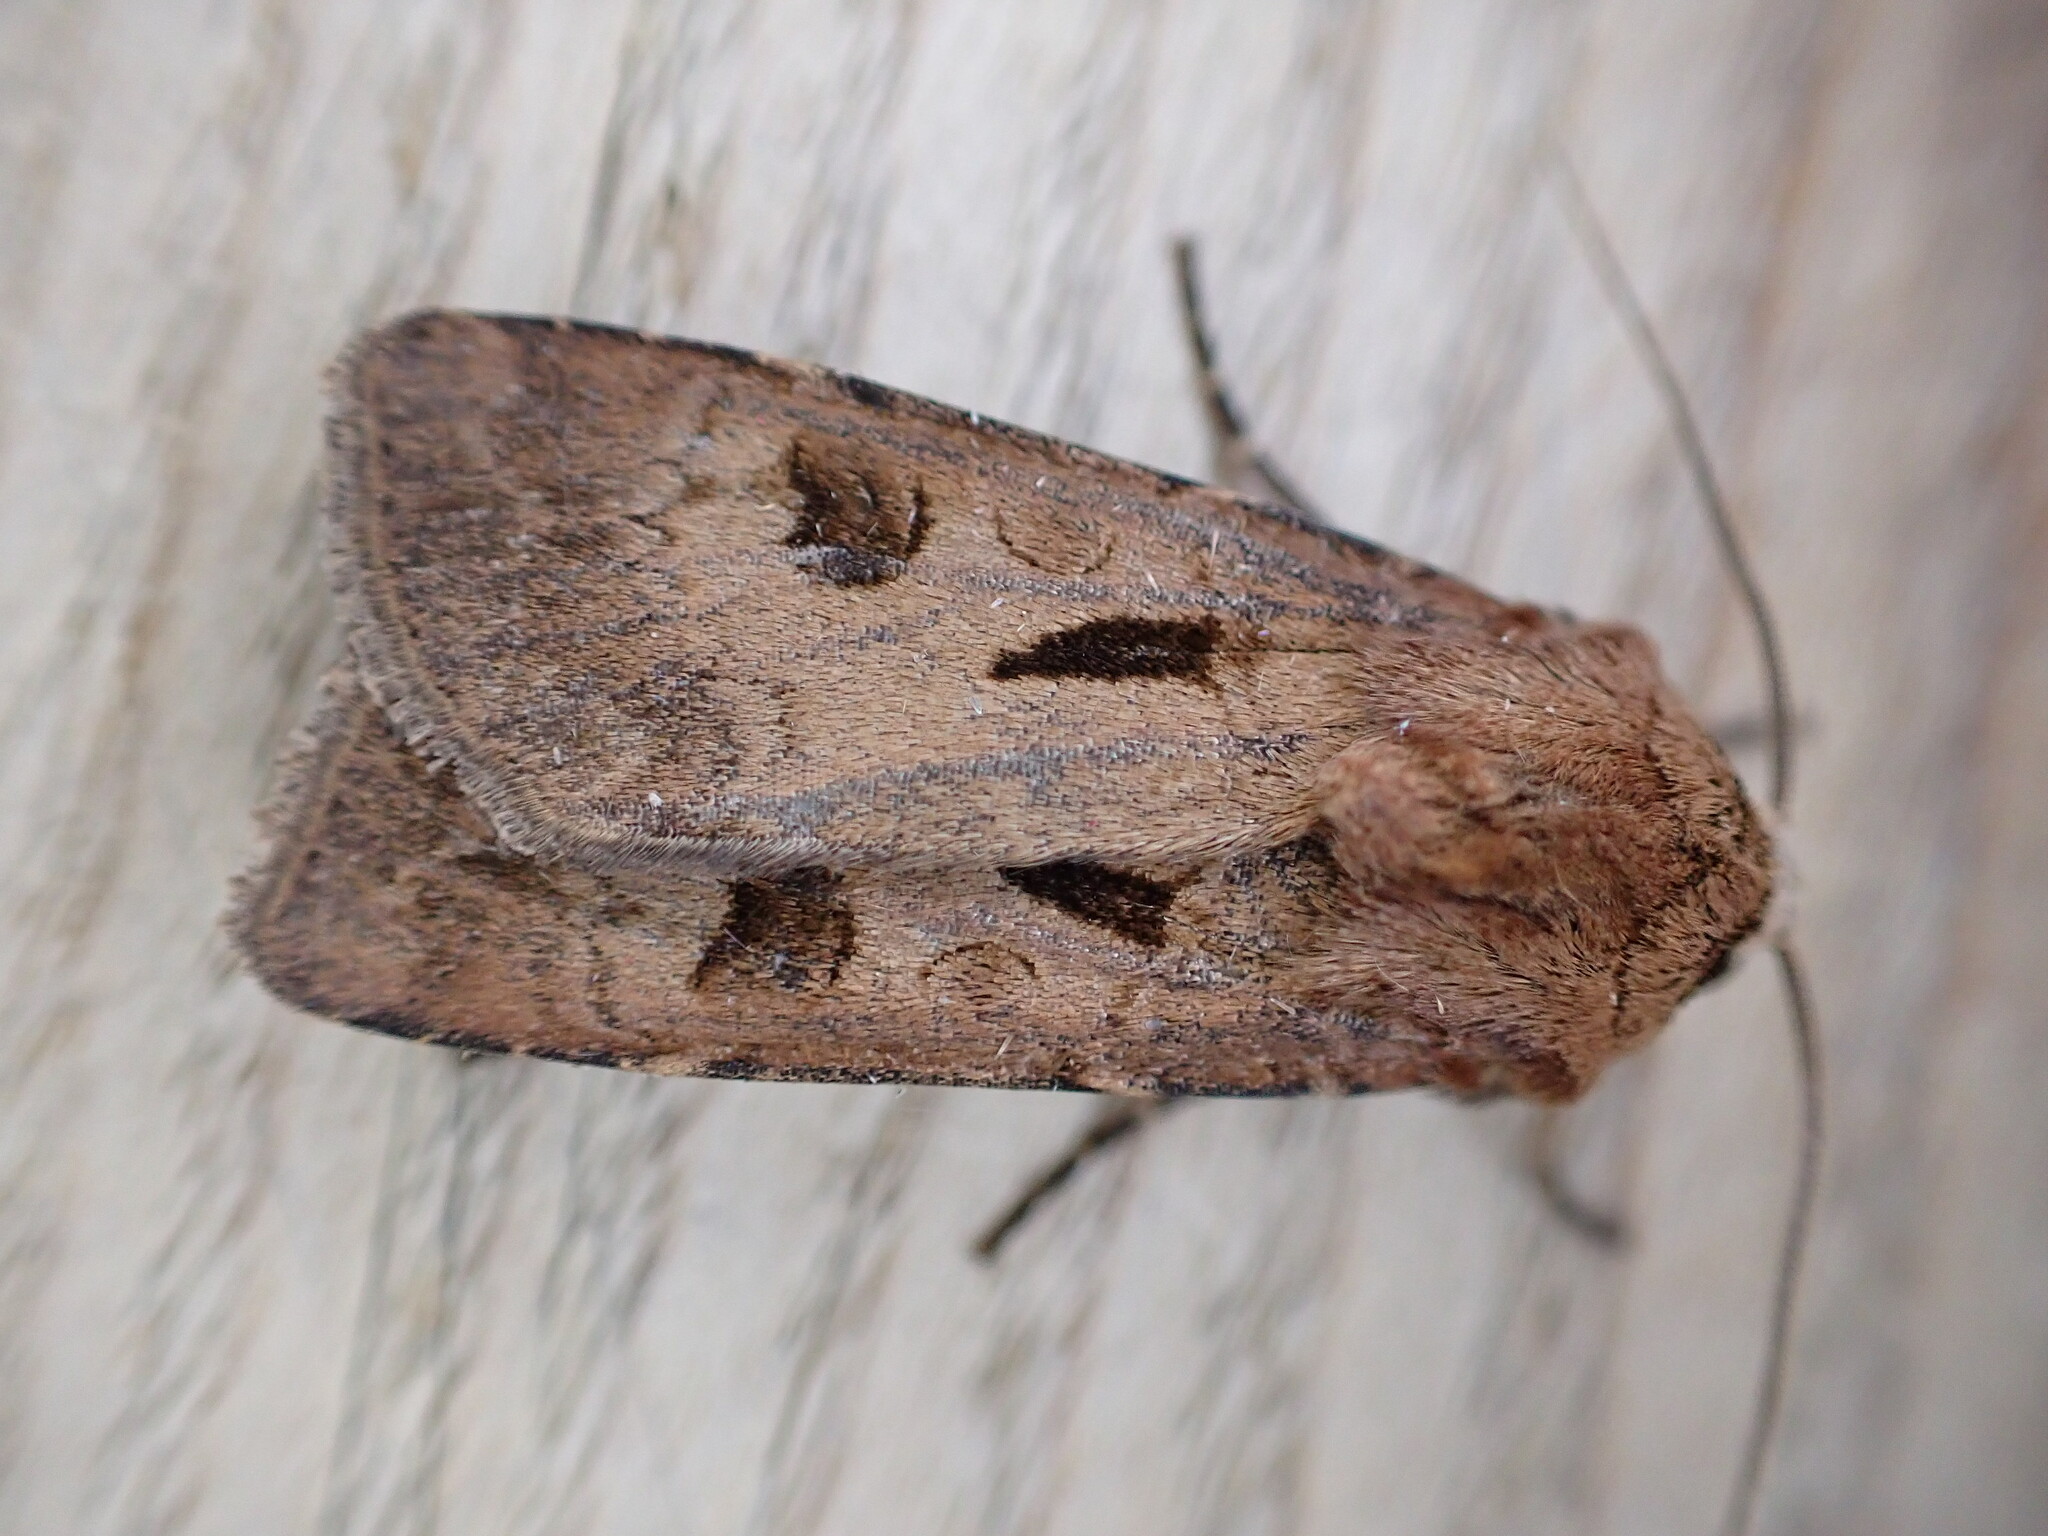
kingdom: Animalia
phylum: Arthropoda
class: Insecta
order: Lepidoptera
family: Noctuidae
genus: Agrotis
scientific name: Agrotis exclamationis
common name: Heart and dart
